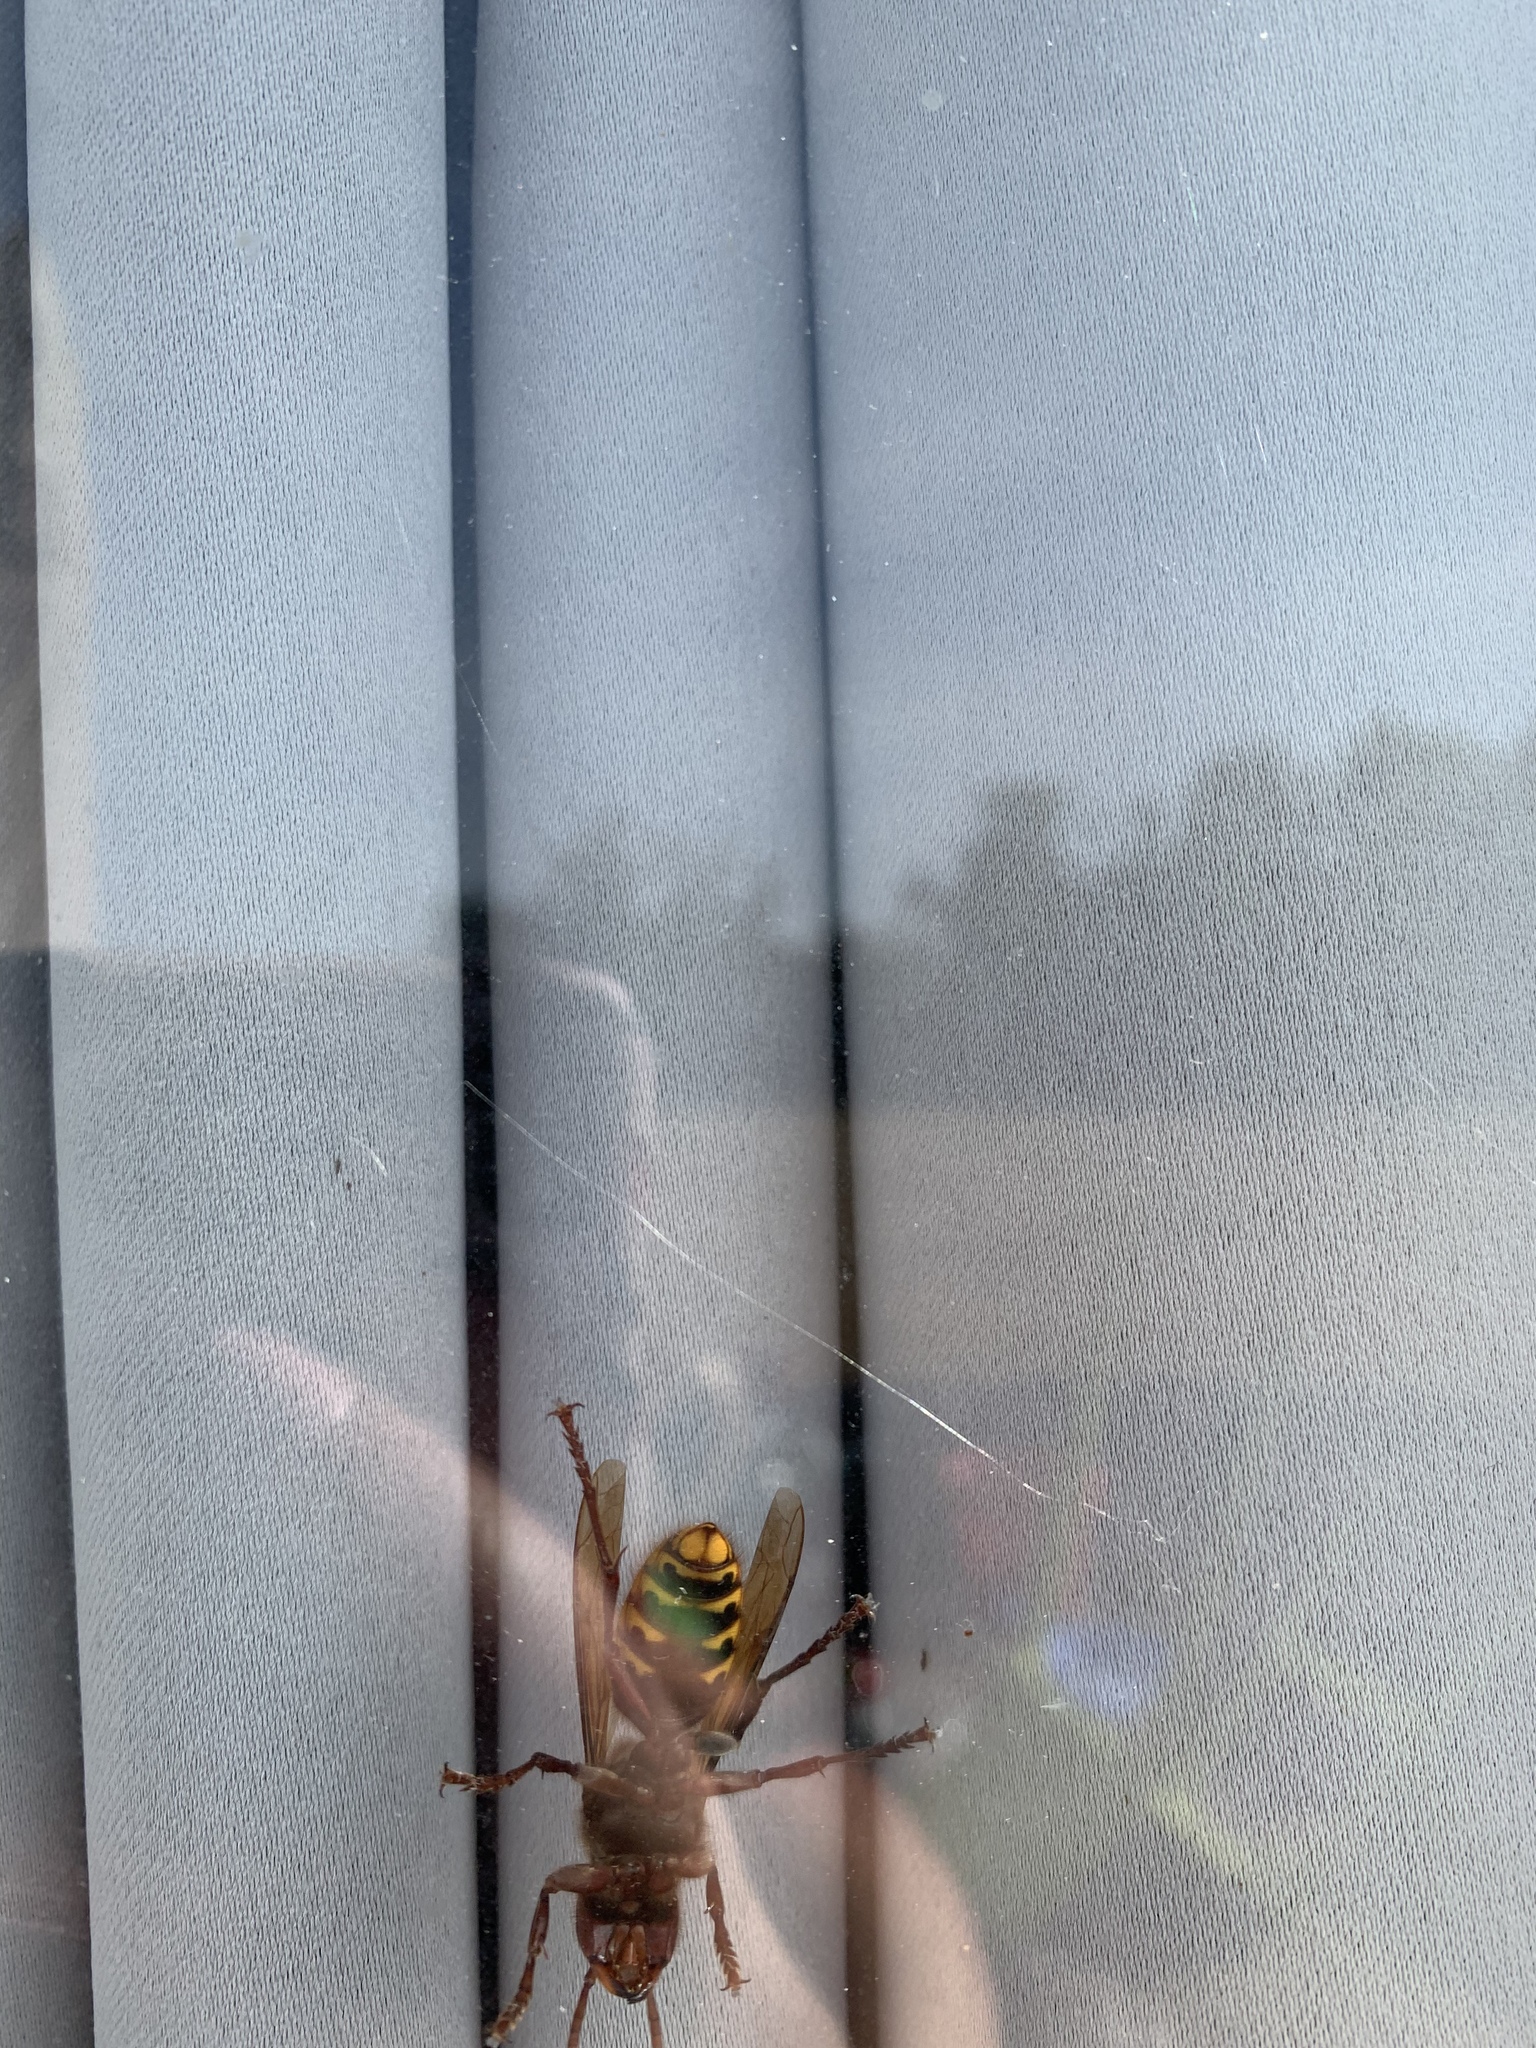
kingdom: Animalia
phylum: Arthropoda
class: Insecta
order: Hymenoptera
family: Vespidae
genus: Vespa
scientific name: Vespa crabro
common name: Hornet
